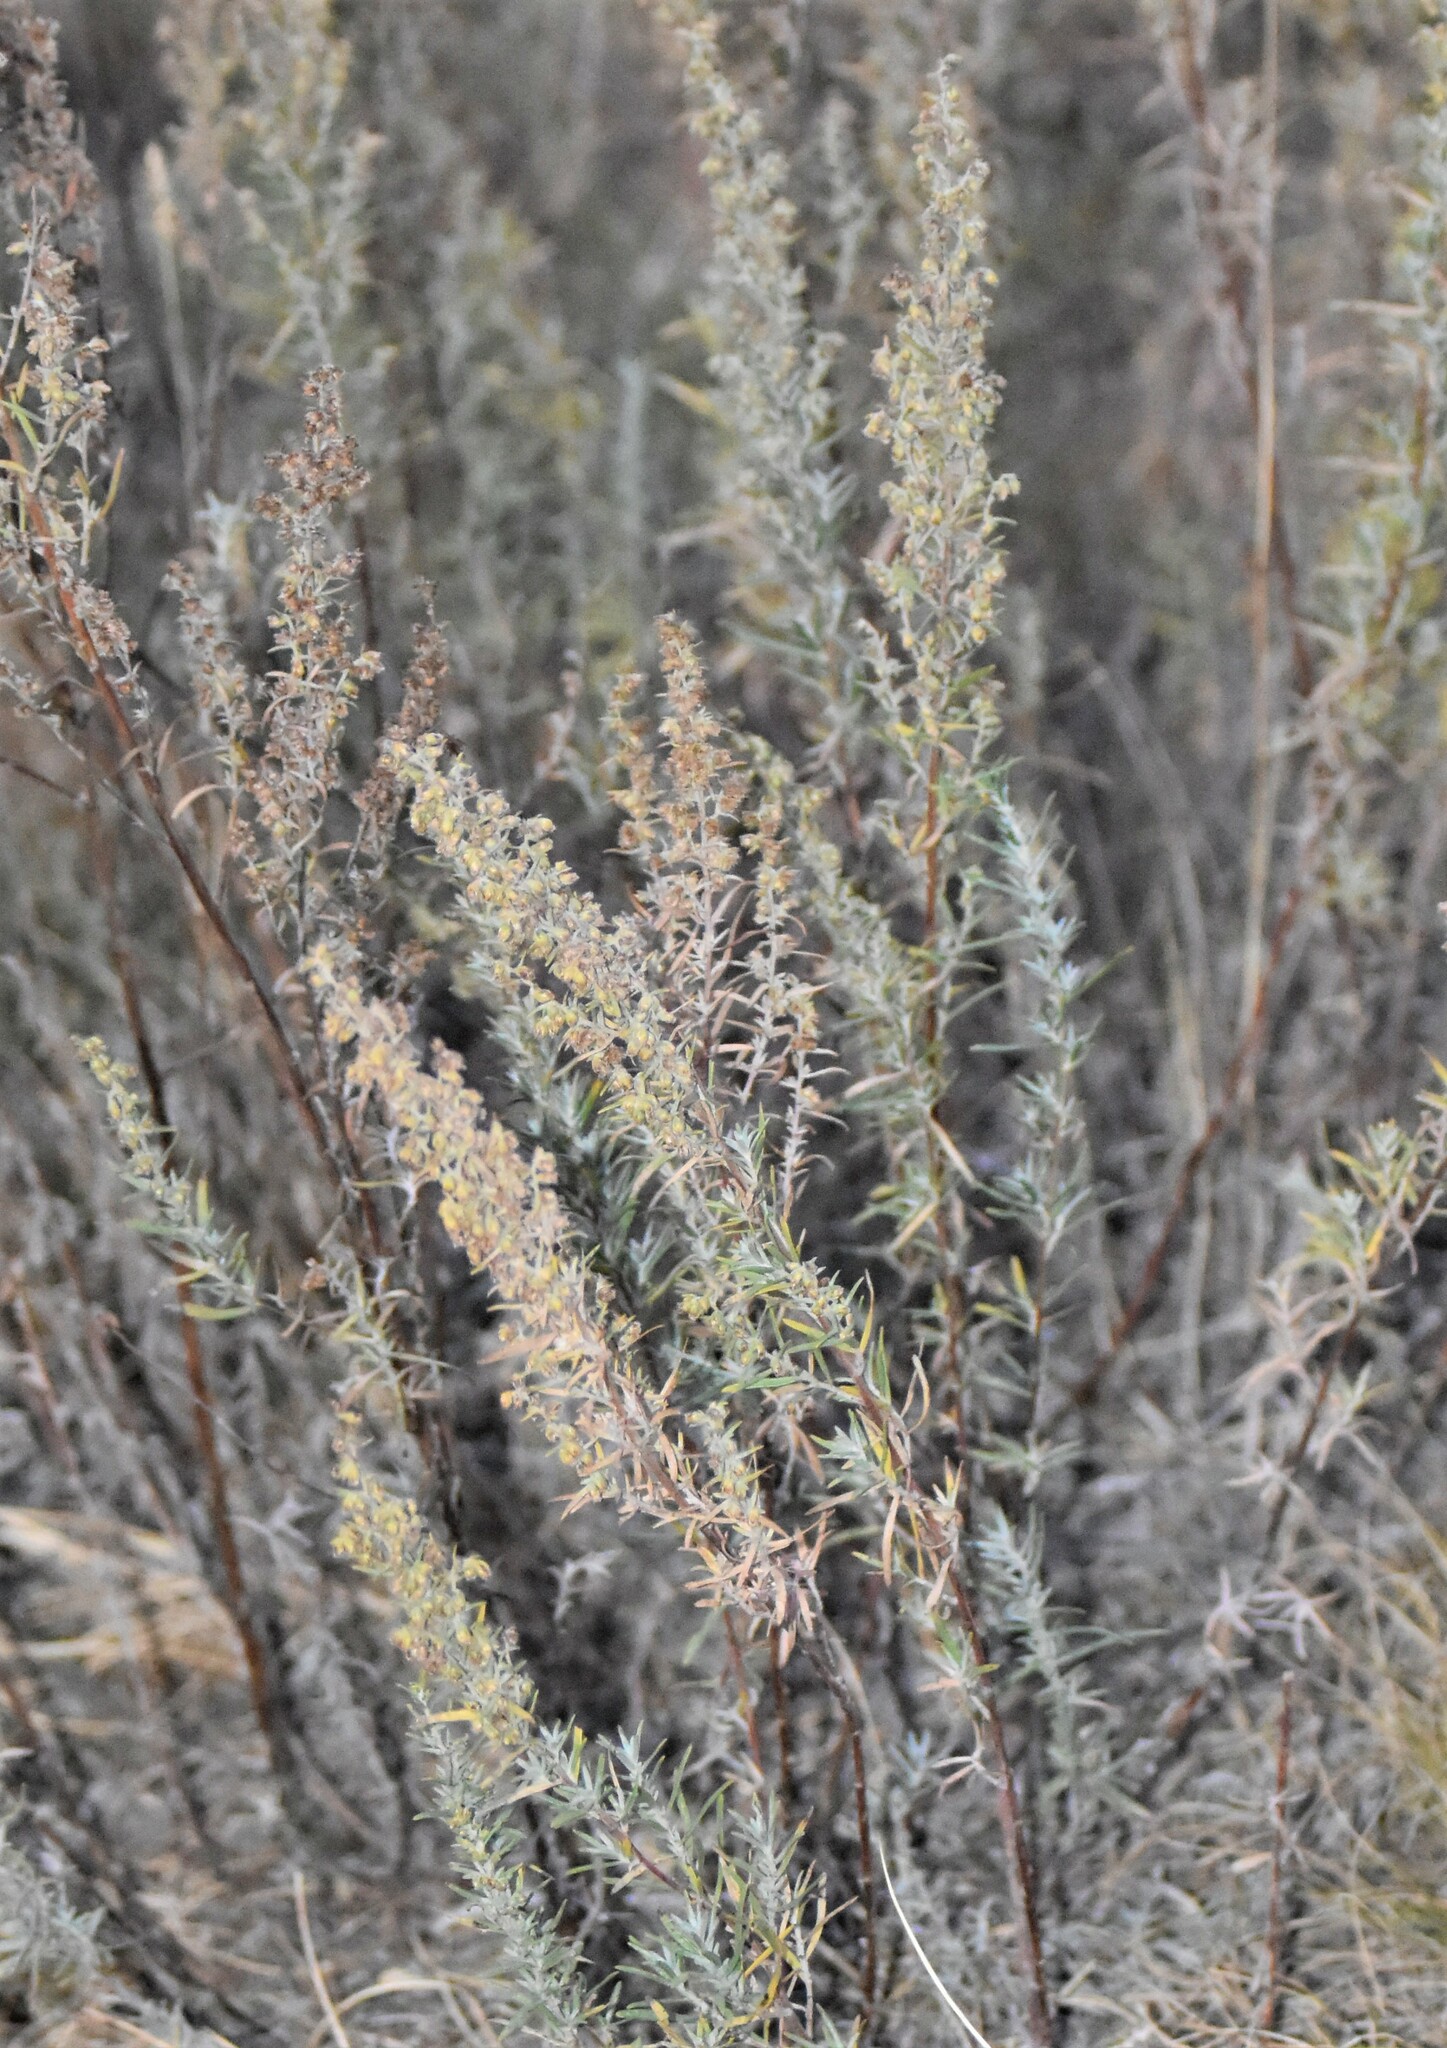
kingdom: Plantae
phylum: Tracheophyta
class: Magnoliopsida
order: Asterales
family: Asteraceae
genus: Artemisia
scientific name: Artemisia dracunculus
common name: Tarragon
